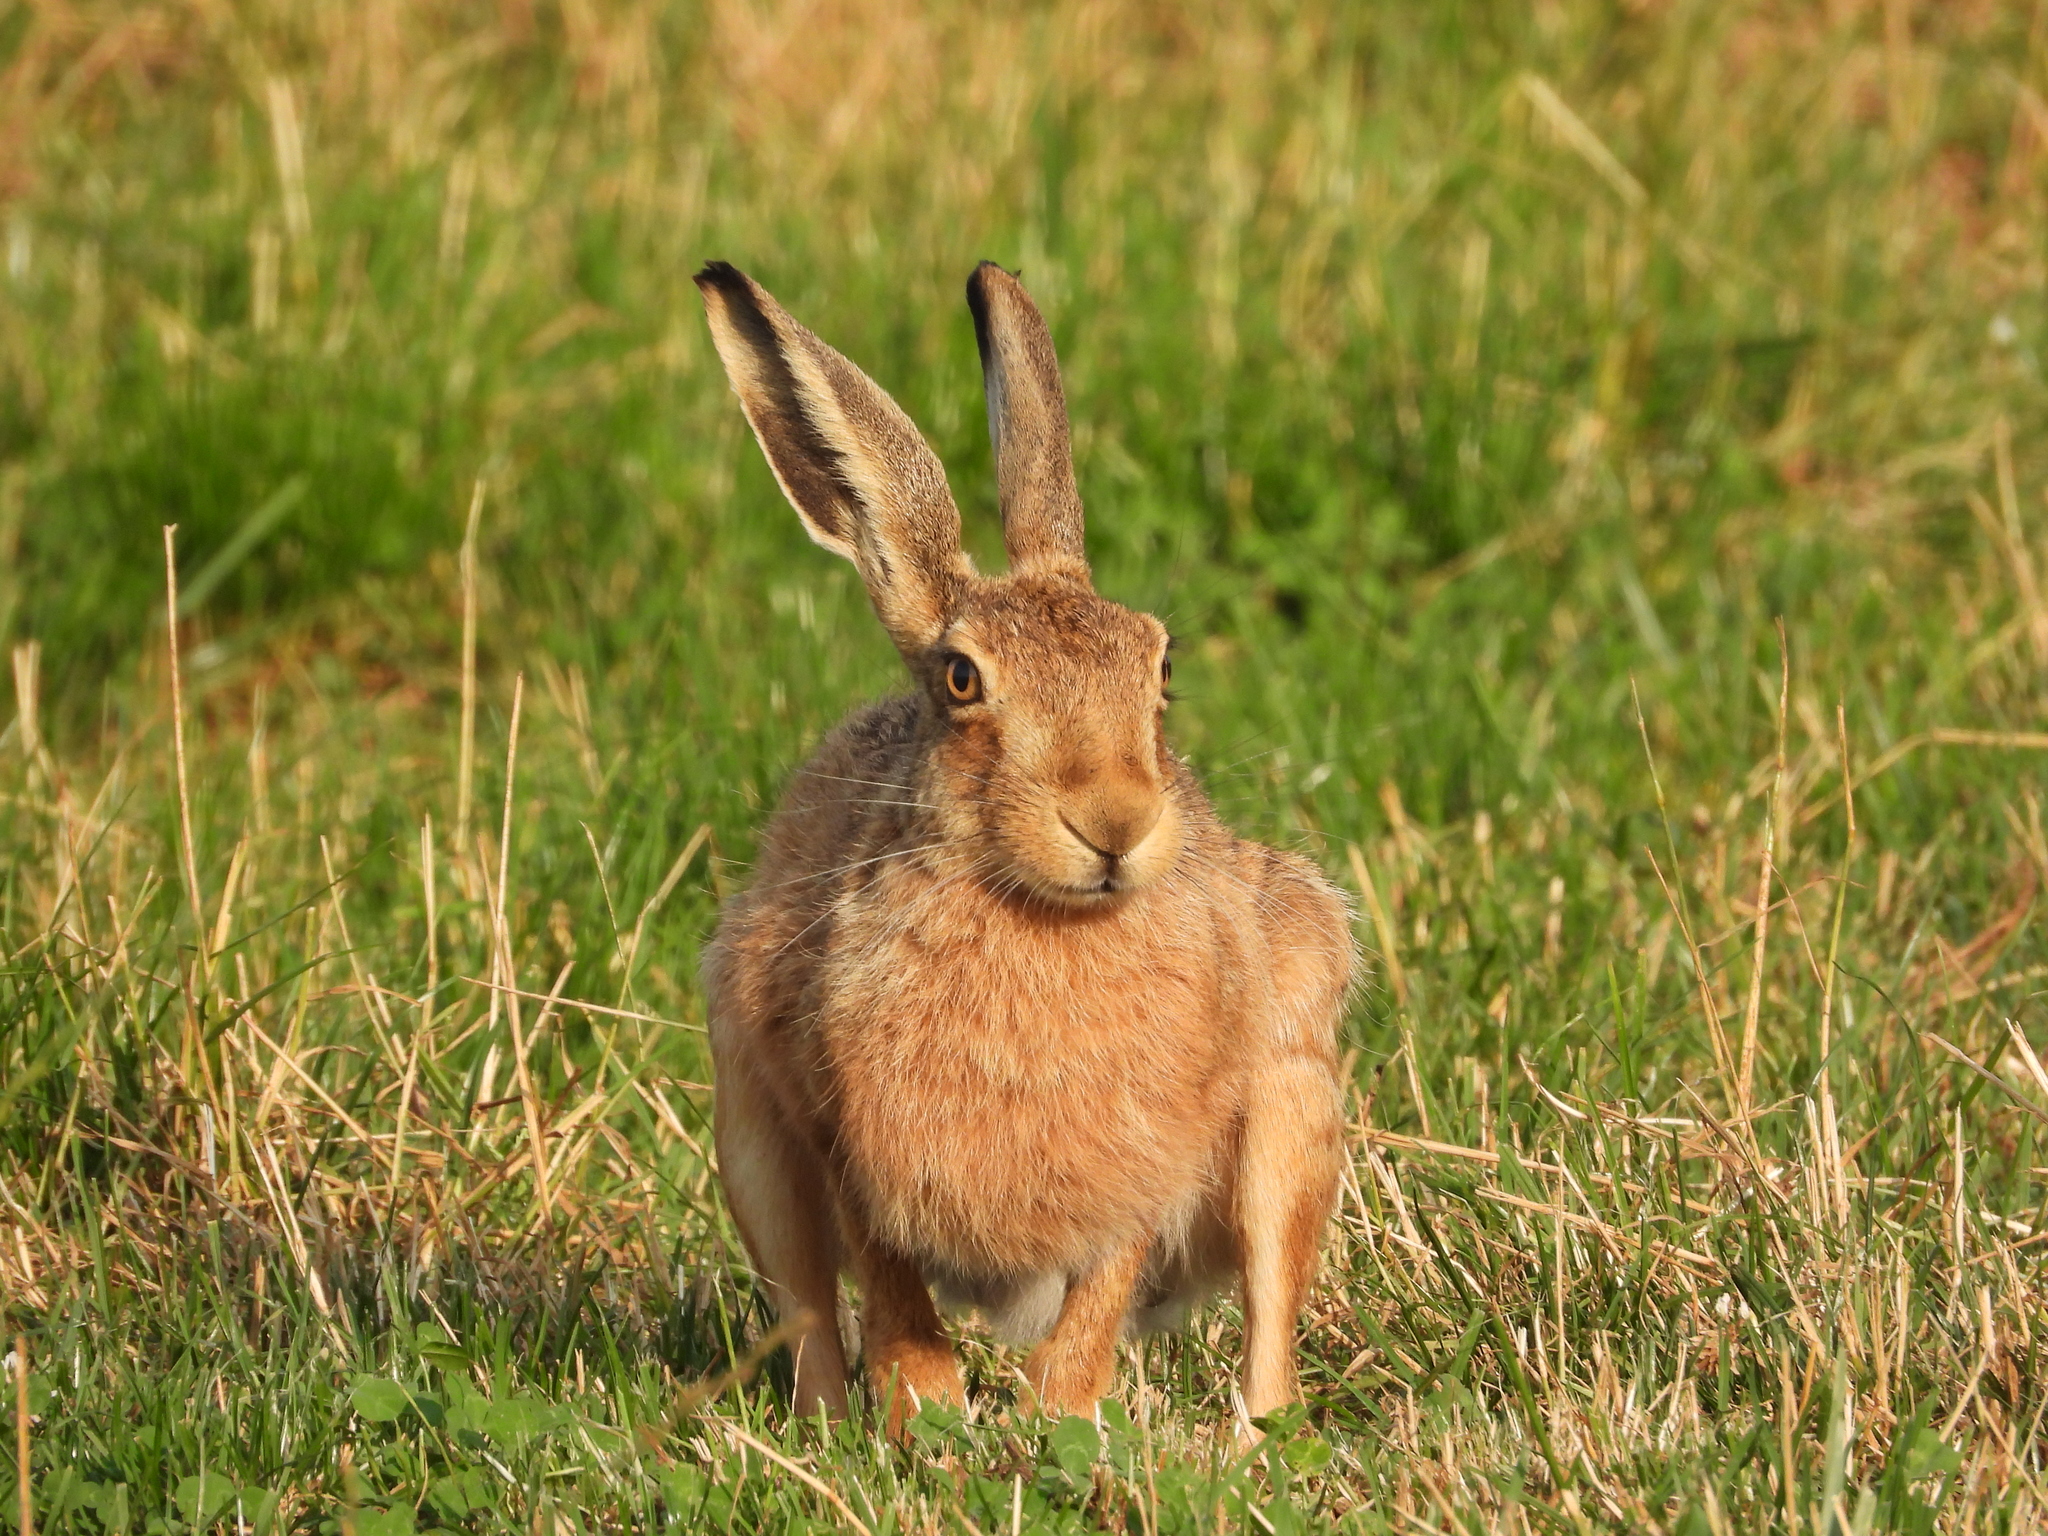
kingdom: Animalia
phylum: Chordata
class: Mammalia
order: Lagomorpha
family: Leporidae
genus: Lepus
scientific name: Lepus europaeus
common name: European hare
